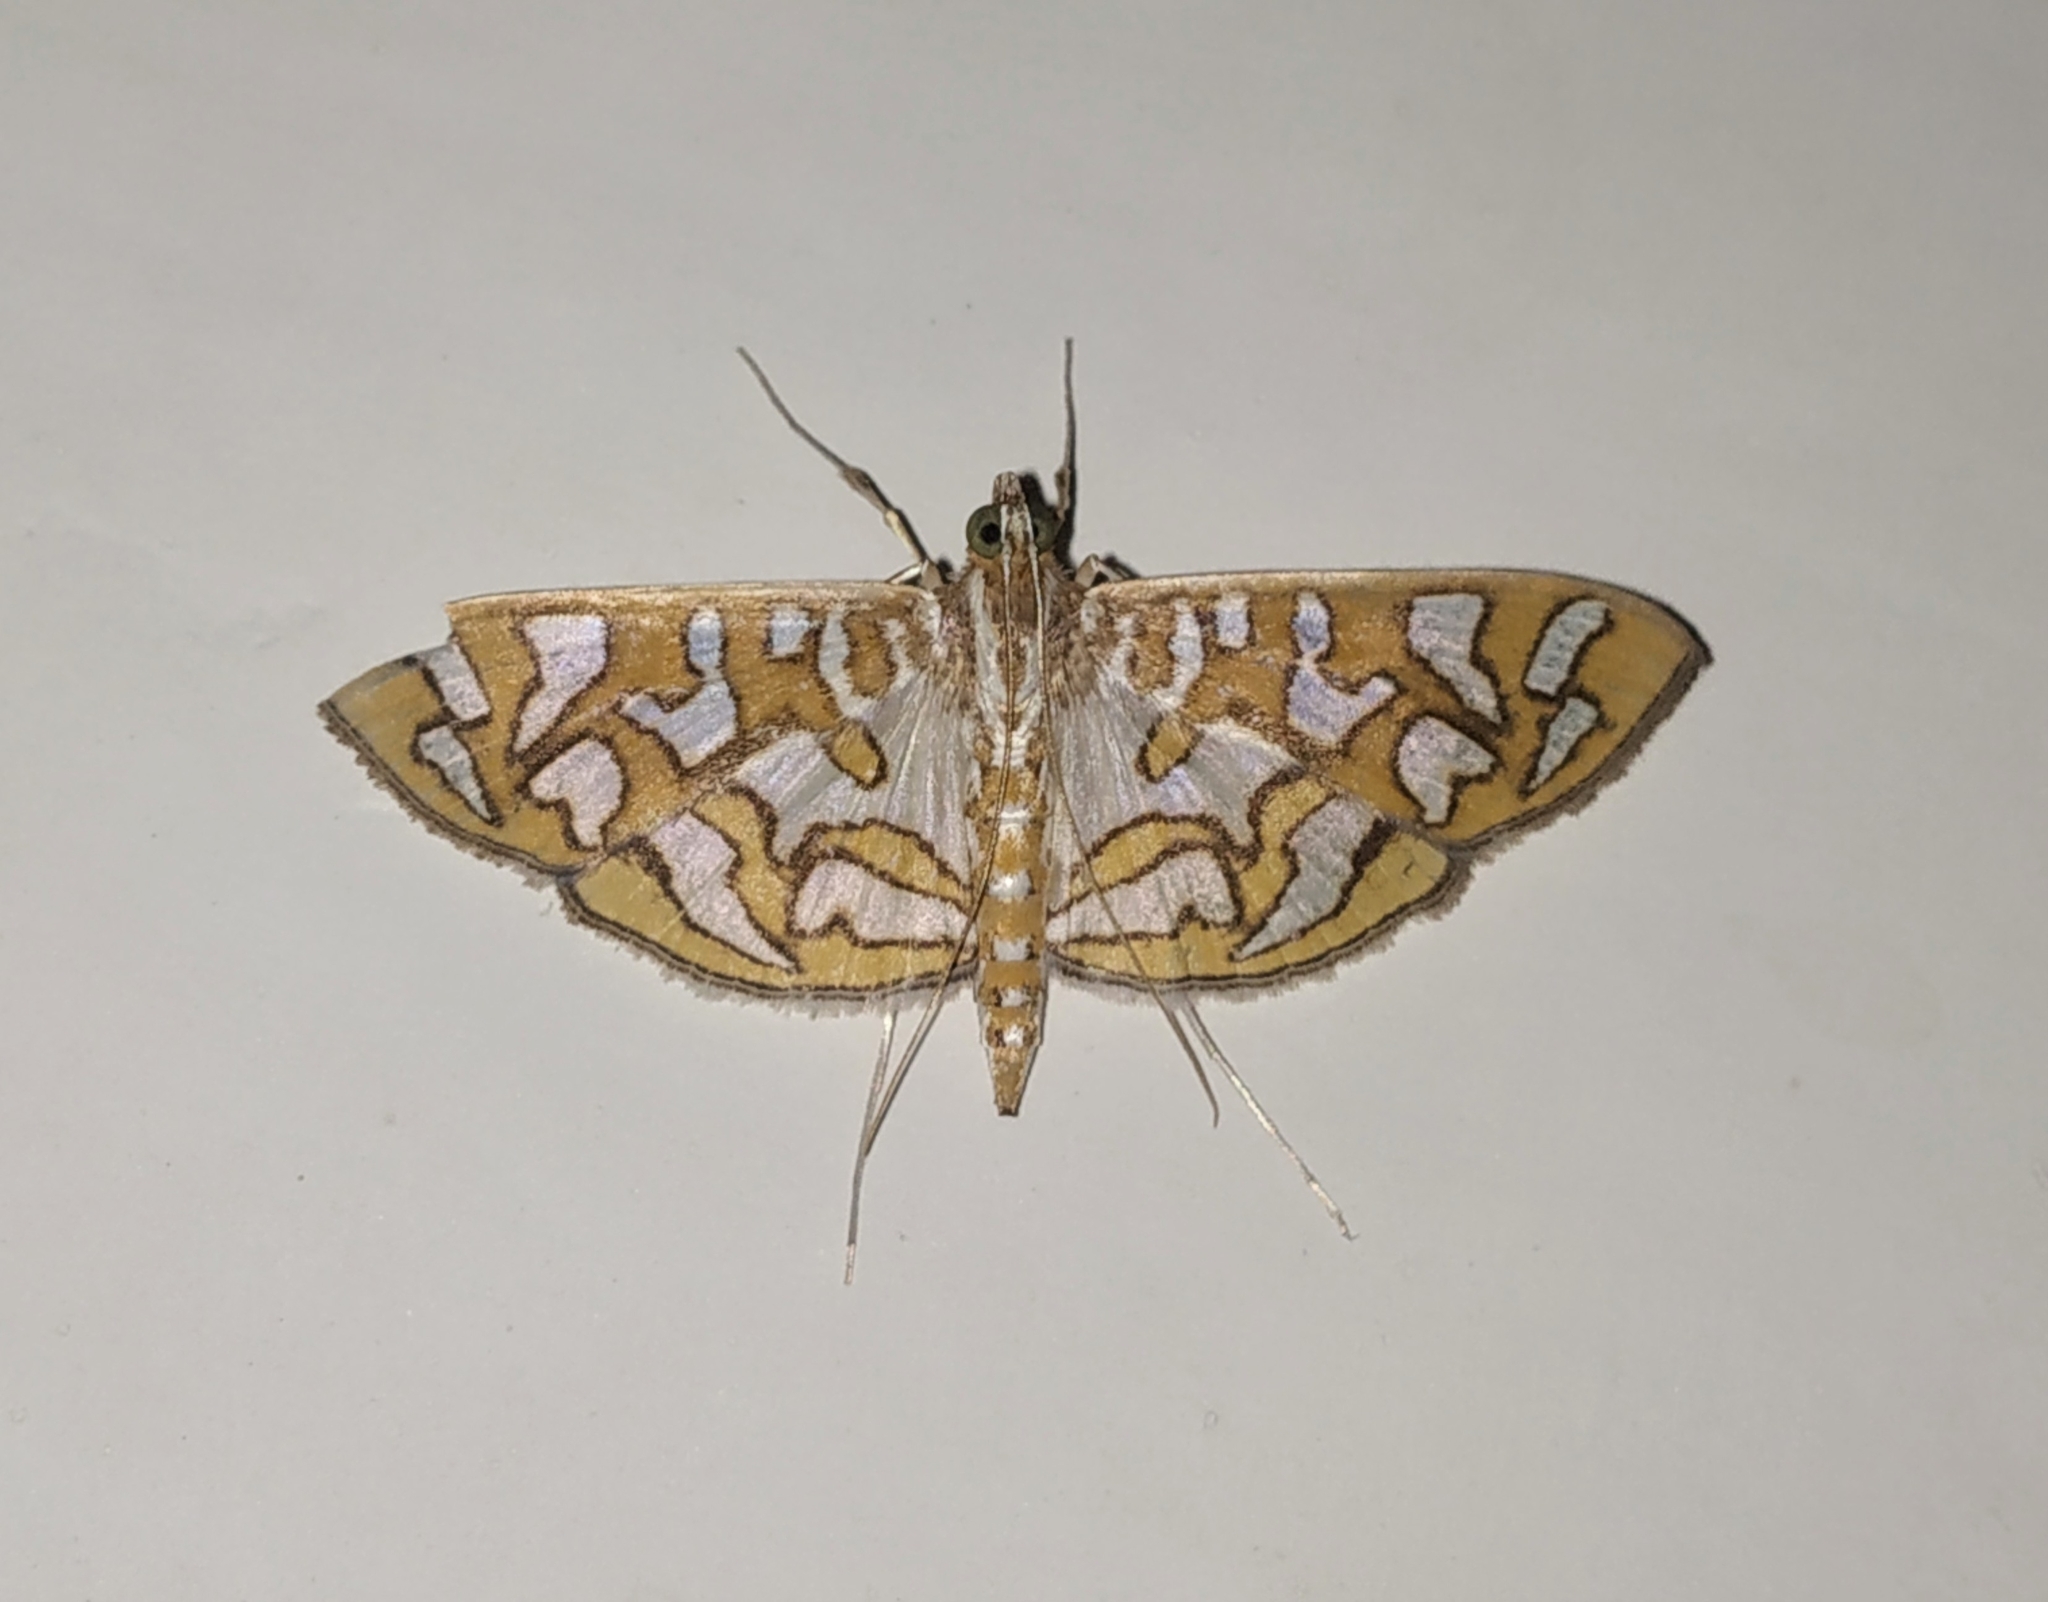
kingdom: Animalia
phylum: Arthropoda
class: Insecta
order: Lepidoptera
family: Crambidae
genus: Nausinoe
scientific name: Nausinoe perspectata
